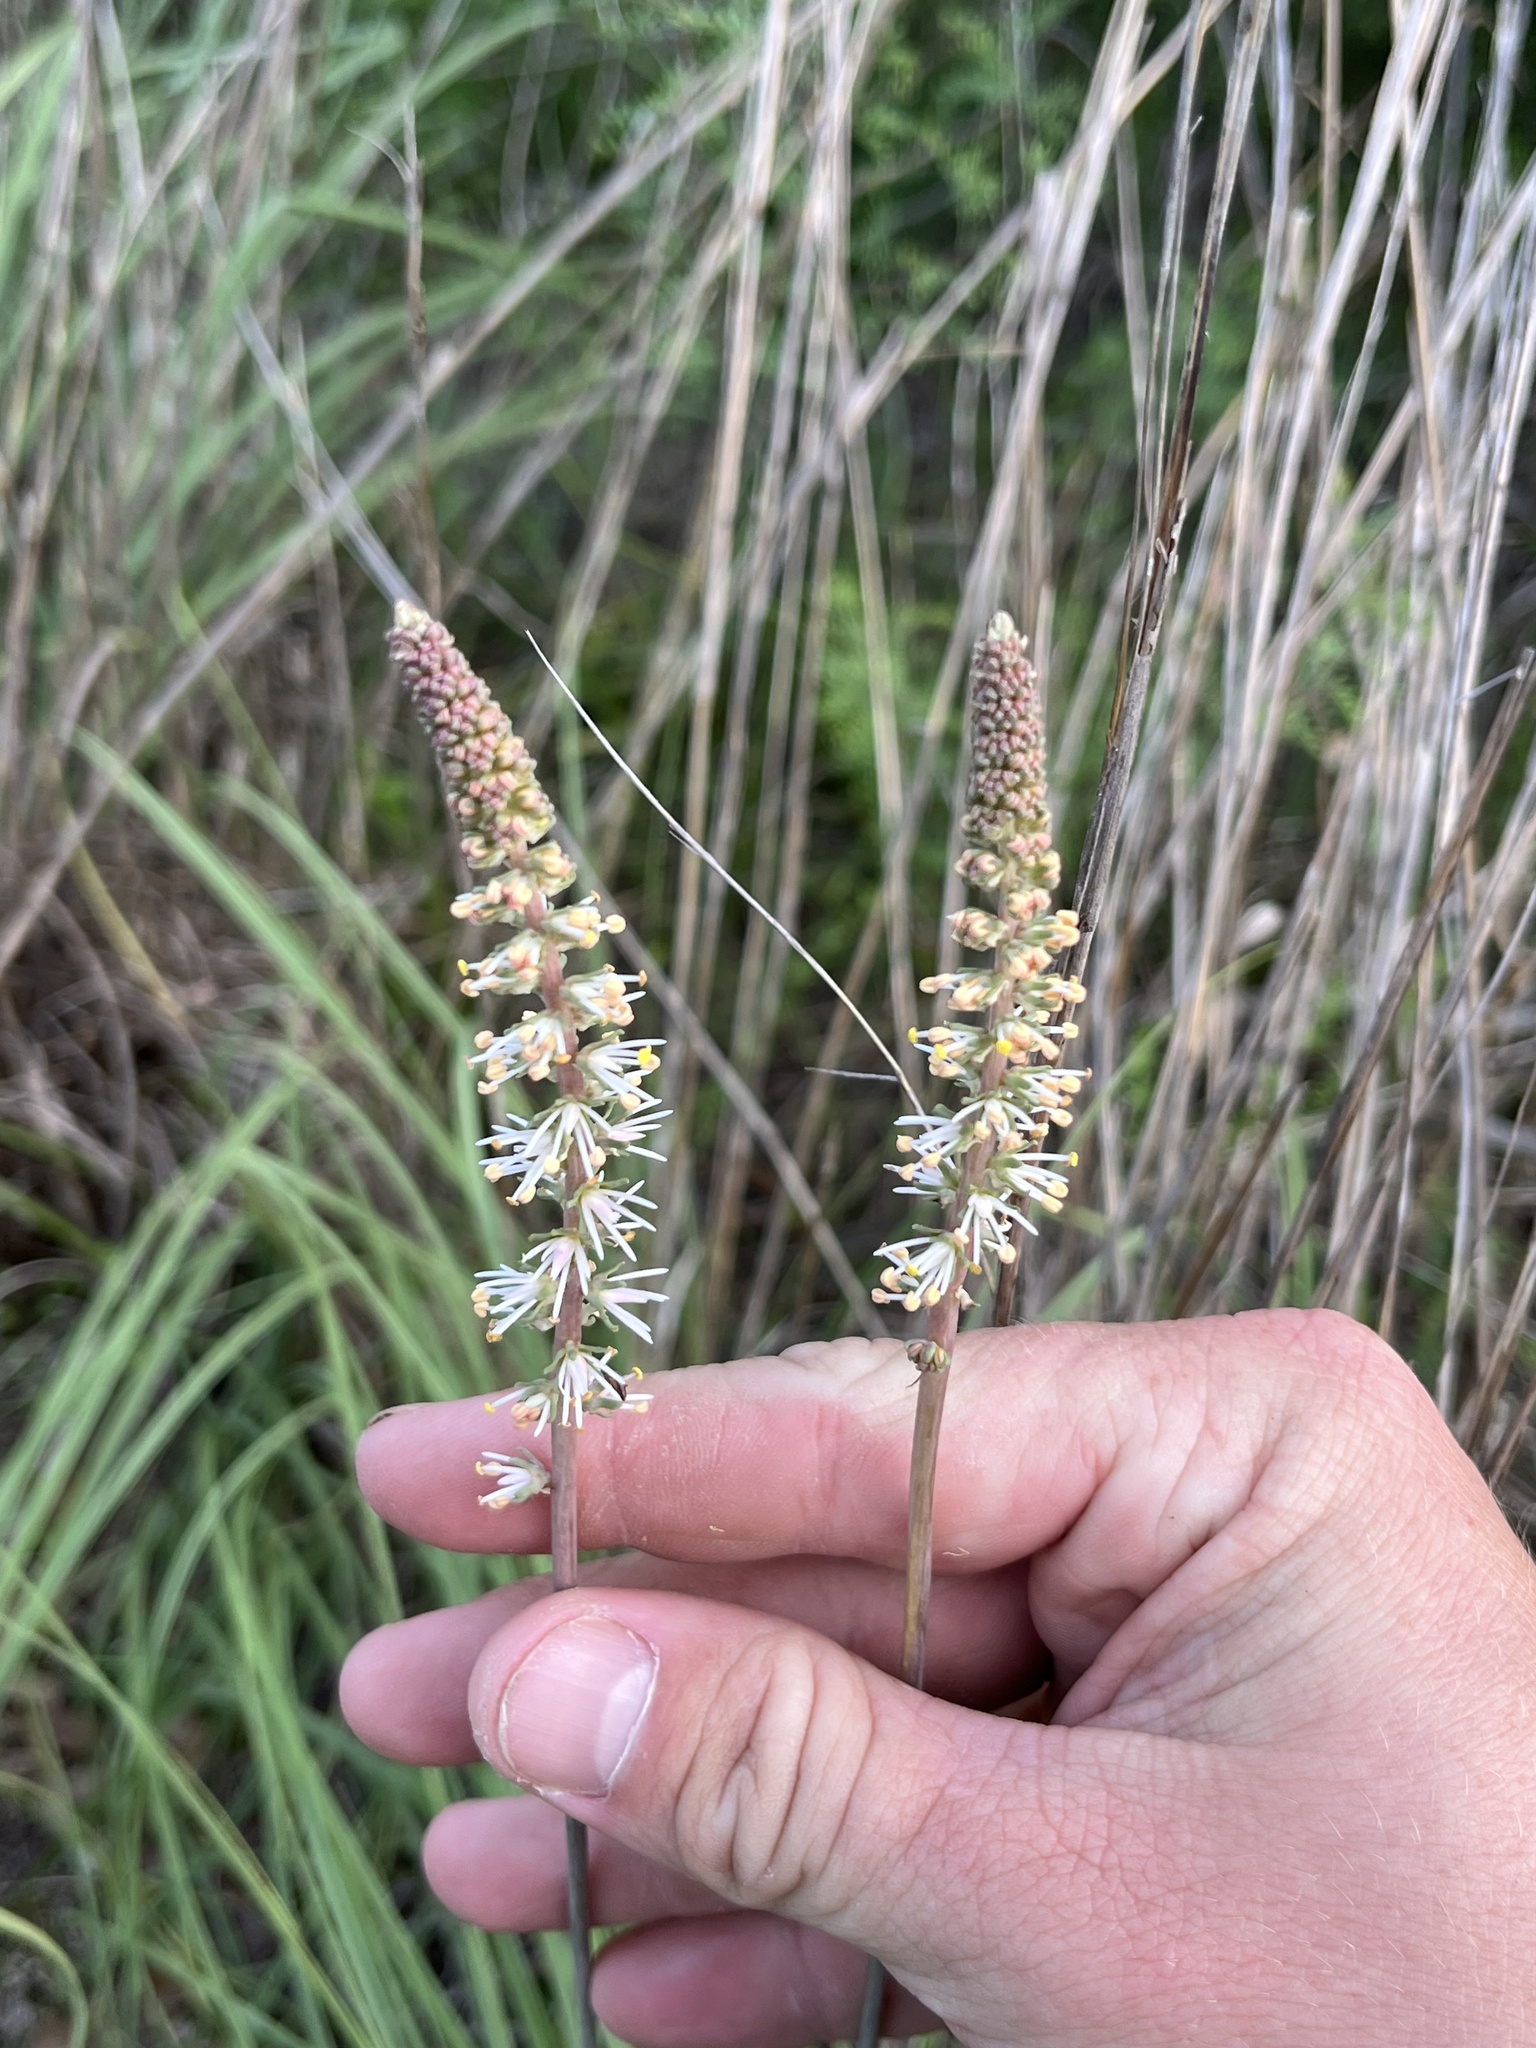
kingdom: Plantae
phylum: Tracheophyta
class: Liliopsida
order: Liliales
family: Melanthiaceae
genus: Schoenocaulon
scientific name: Schoenocaulon texanum
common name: Texas feather-shank
